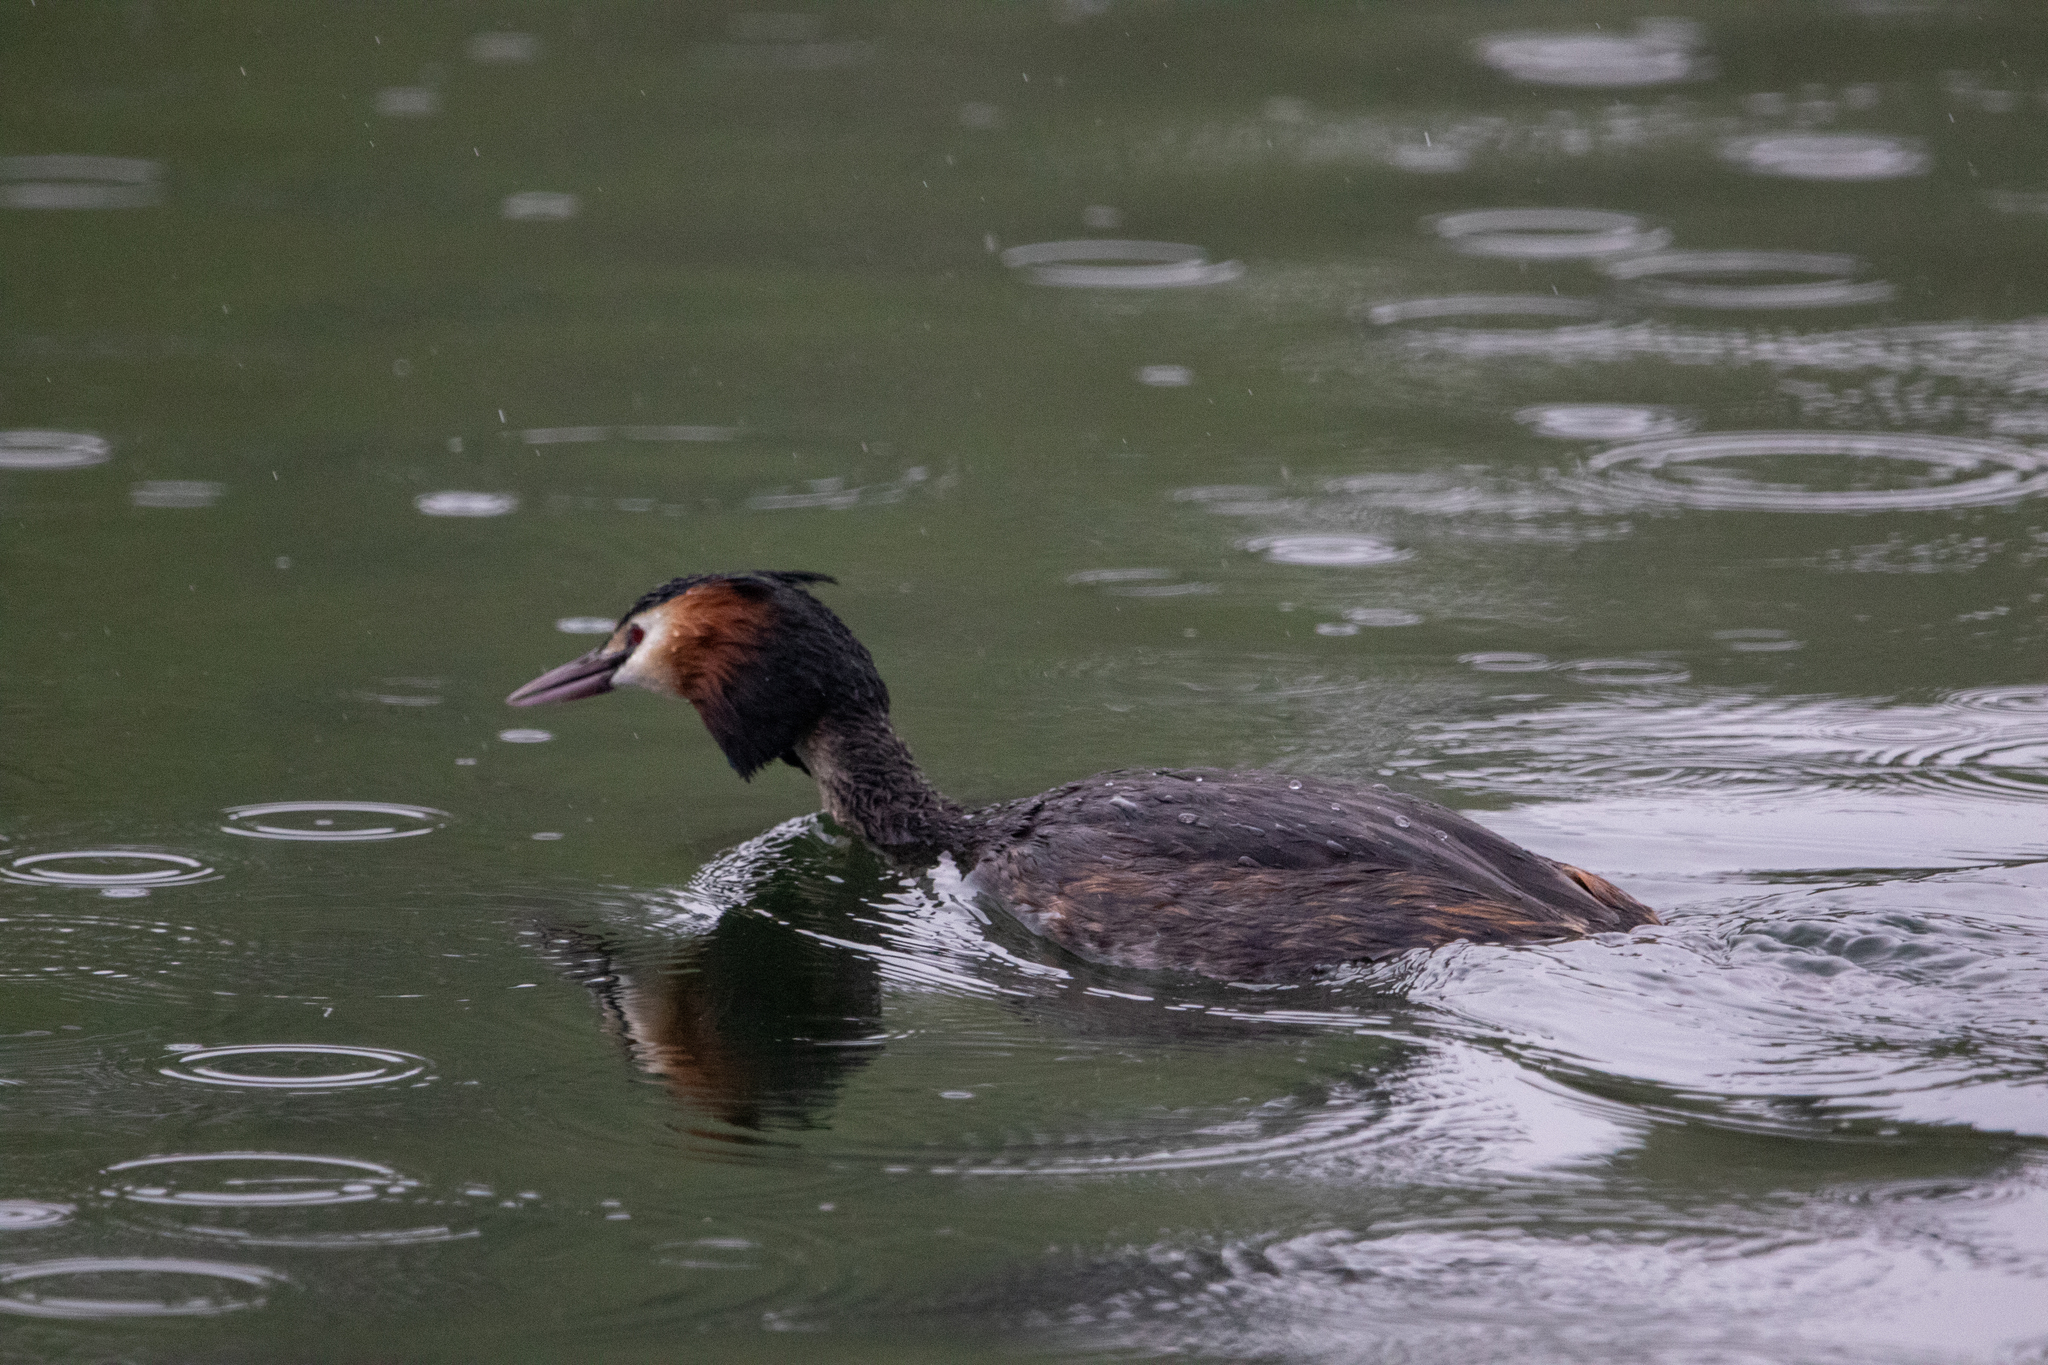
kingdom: Animalia
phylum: Chordata
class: Aves
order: Podicipediformes
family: Podicipedidae
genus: Podiceps
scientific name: Podiceps cristatus
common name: Great crested grebe
